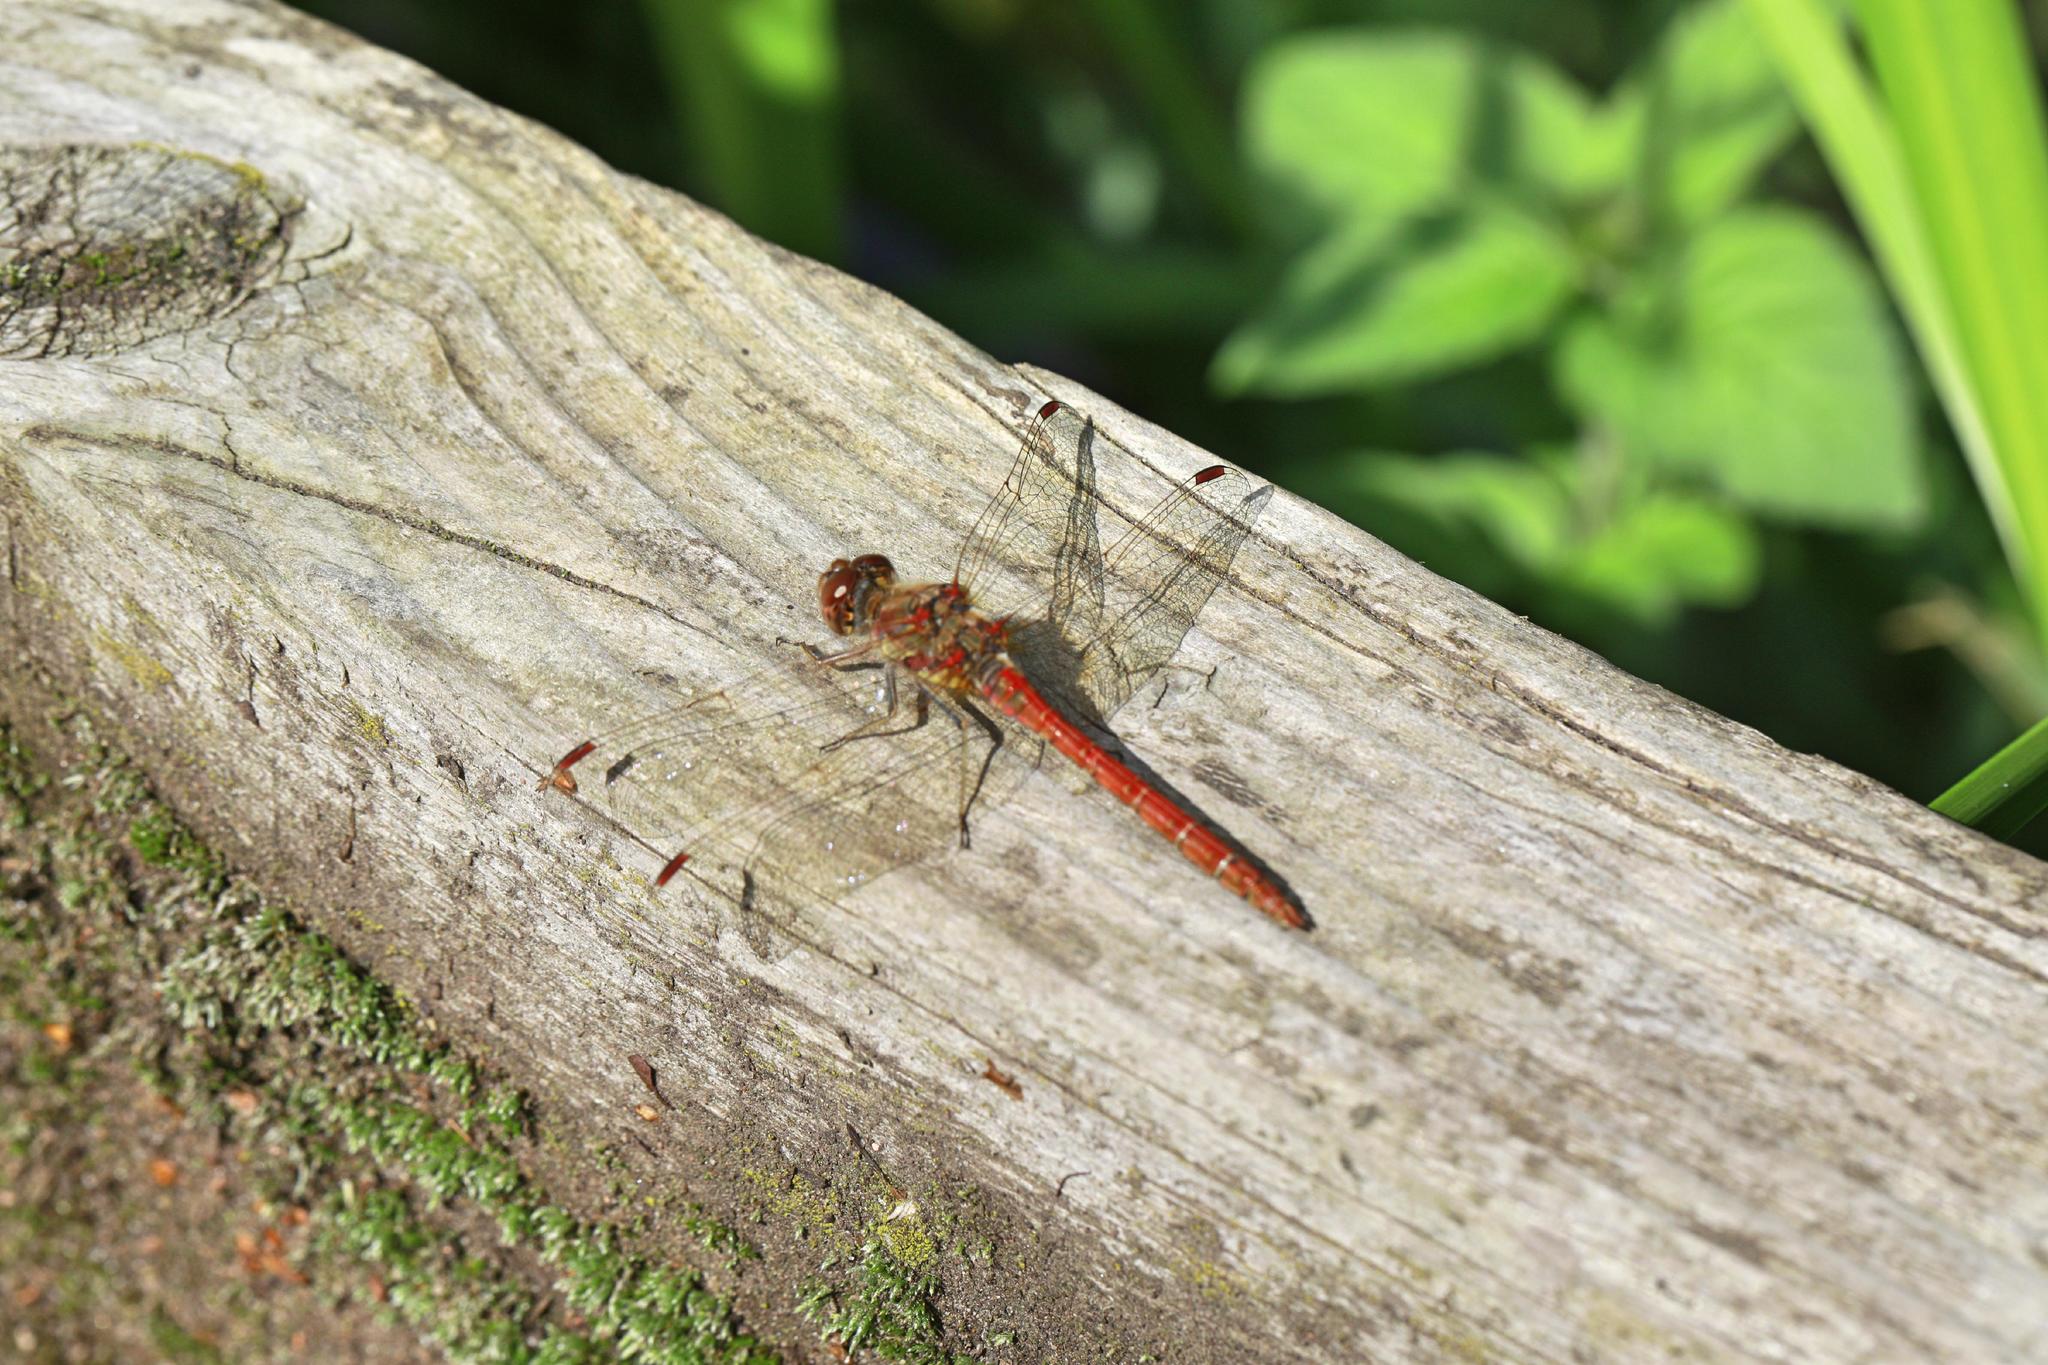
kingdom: Animalia
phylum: Arthropoda
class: Insecta
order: Odonata
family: Libellulidae
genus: Sympetrum
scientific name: Sympetrum striolatum
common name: Common darter
